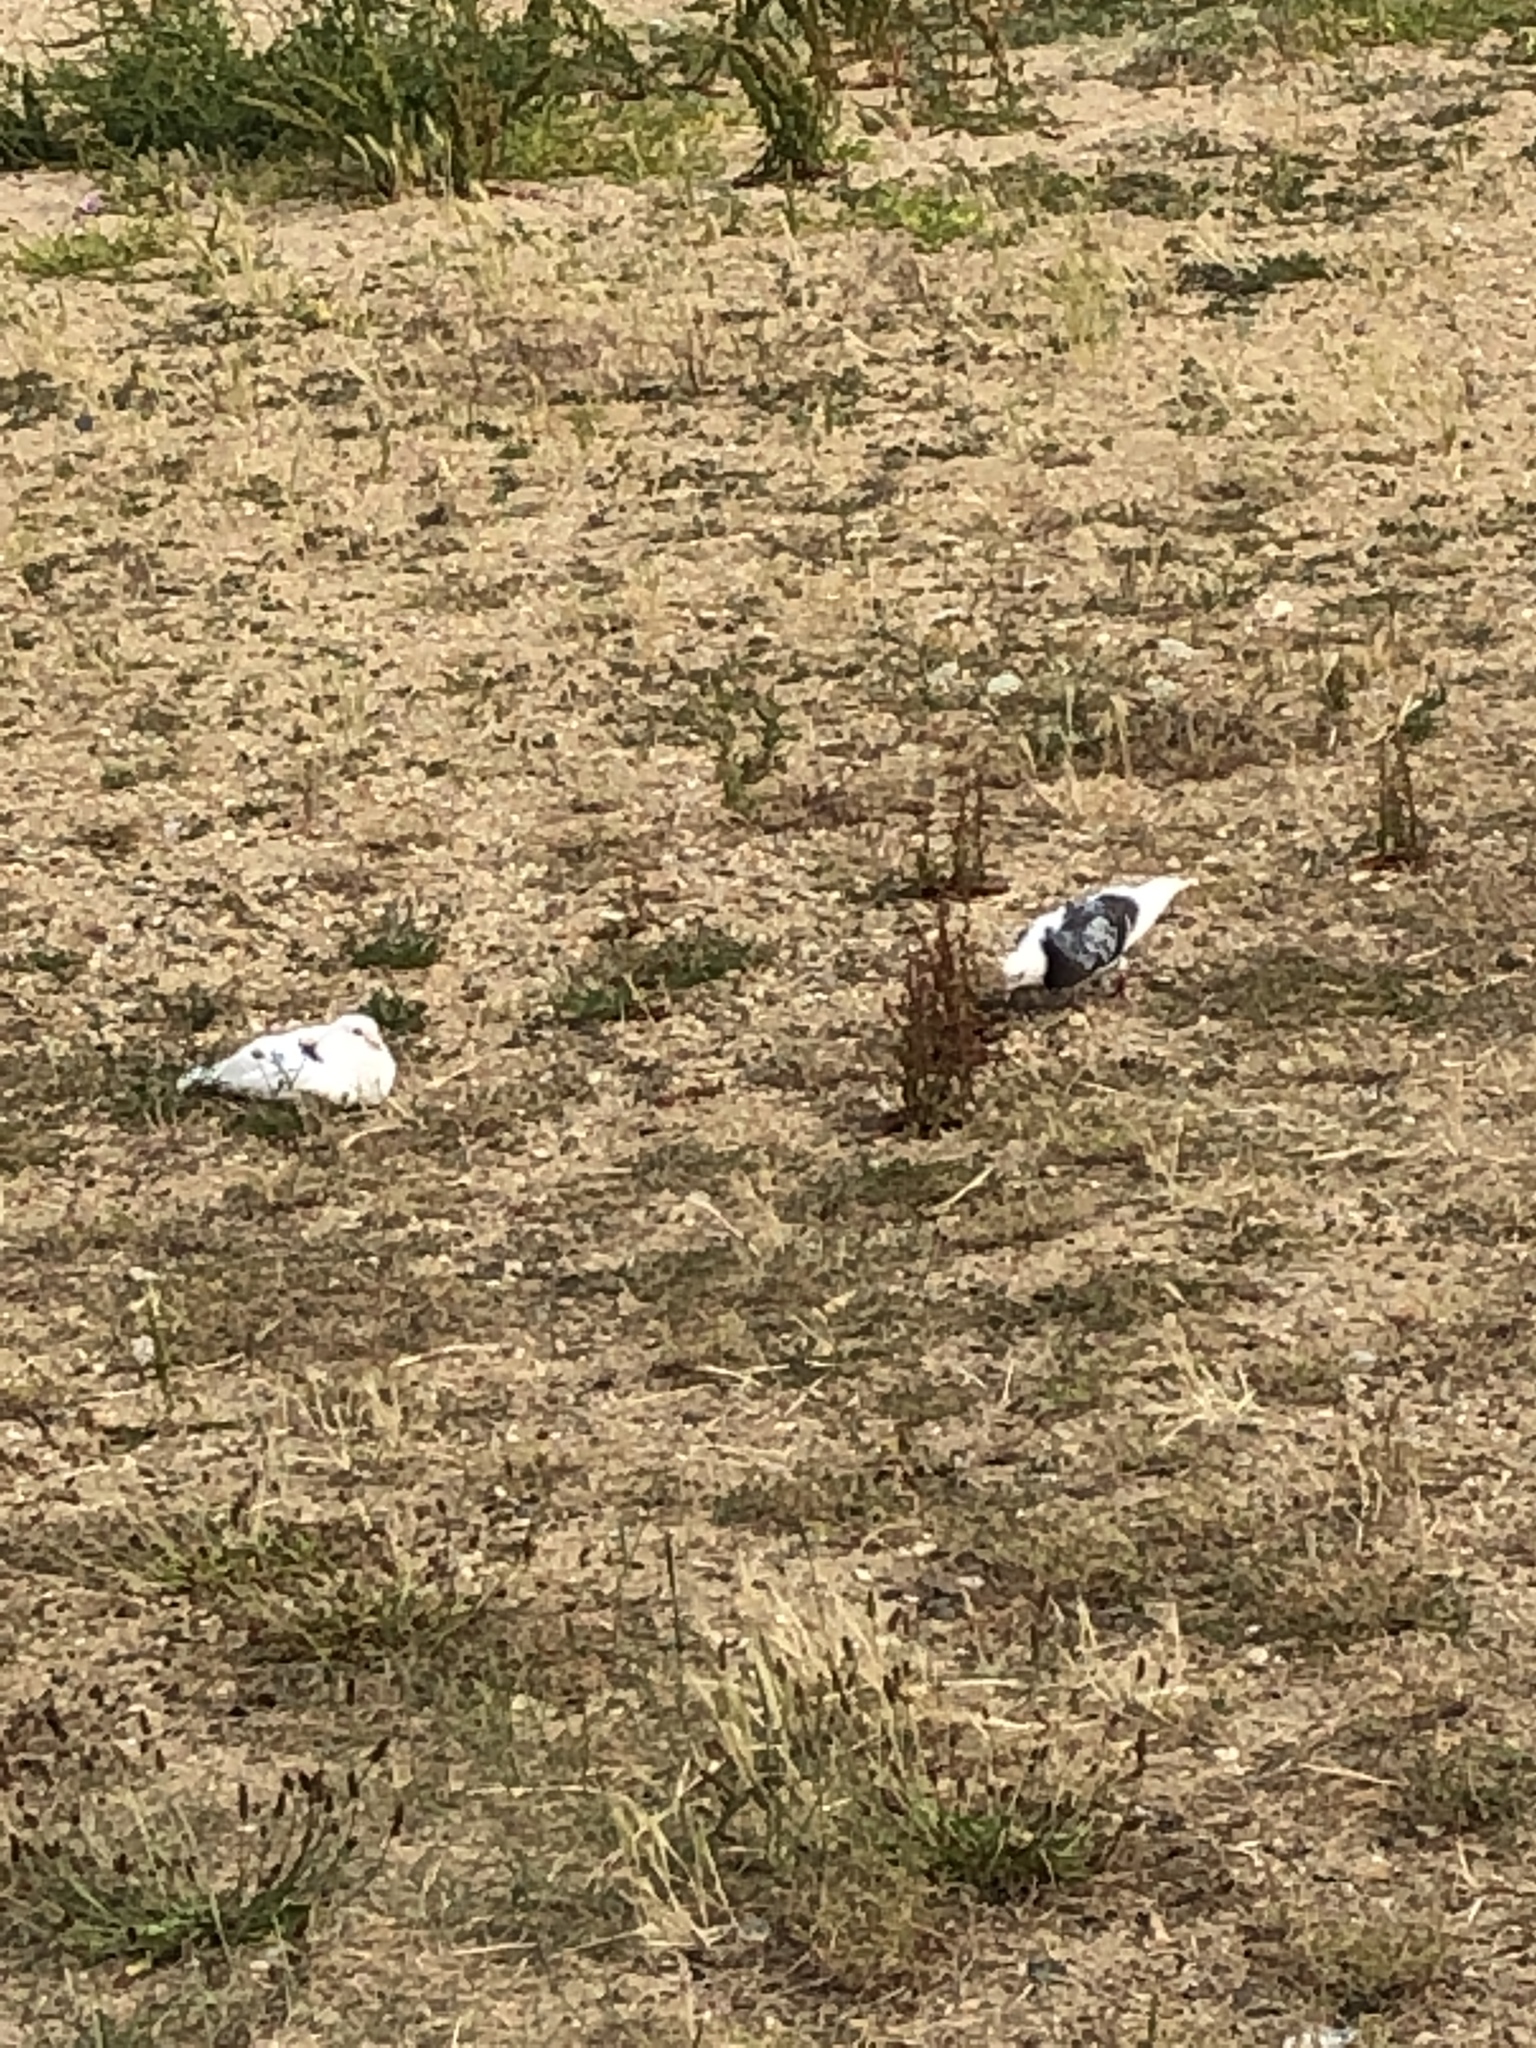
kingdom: Animalia
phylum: Chordata
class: Aves
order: Columbiformes
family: Columbidae
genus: Columba
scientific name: Columba livia
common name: Rock pigeon
